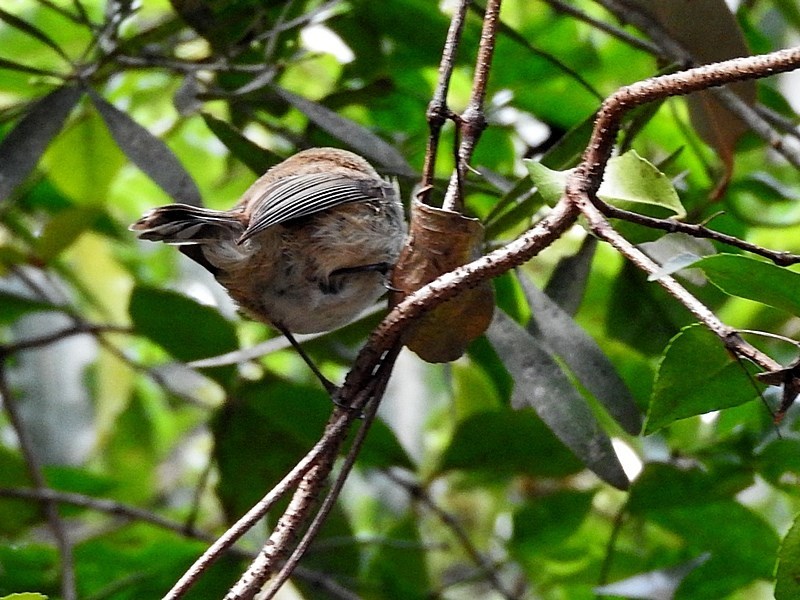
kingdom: Animalia
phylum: Chordata
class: Aves
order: Passeriformes
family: Acanthizidae
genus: Gerygone
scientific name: Gerygone mouki
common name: Brown gerygone
